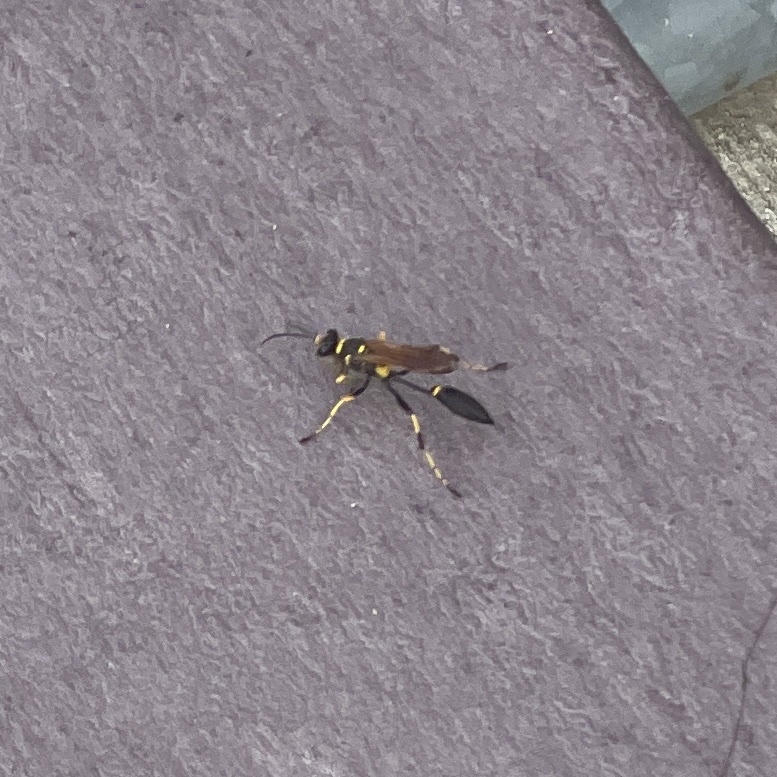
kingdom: Animalia
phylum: Arthropoda
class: Insecta
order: Hymenoptera
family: Sphecidae
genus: Sceliphron
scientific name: Sceliphron caementarium
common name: Mud dauber
